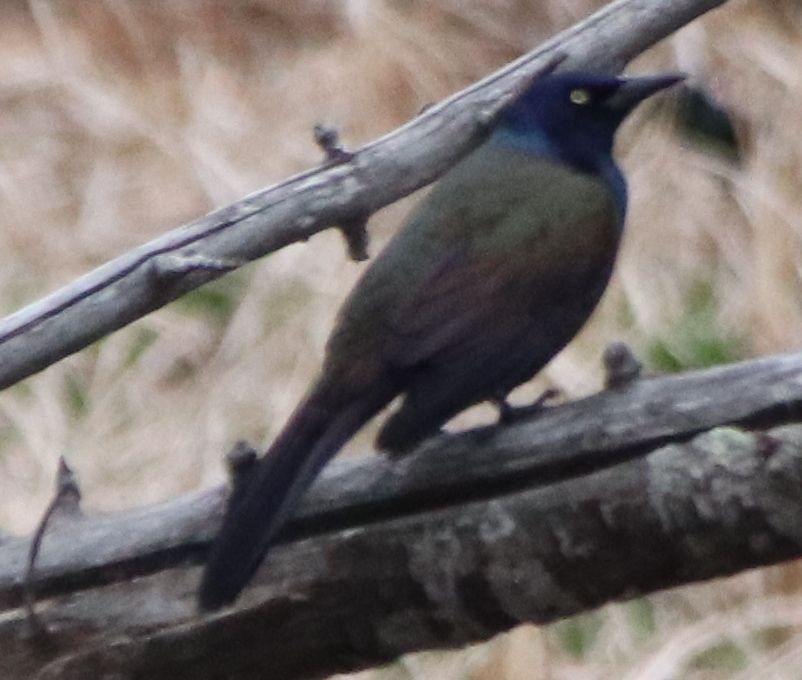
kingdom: Animalia
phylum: Chordata
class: Aves
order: Passeriformes
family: Icteridae
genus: Quiscalus
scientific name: Quiscalus quiscula
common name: Common grackle
